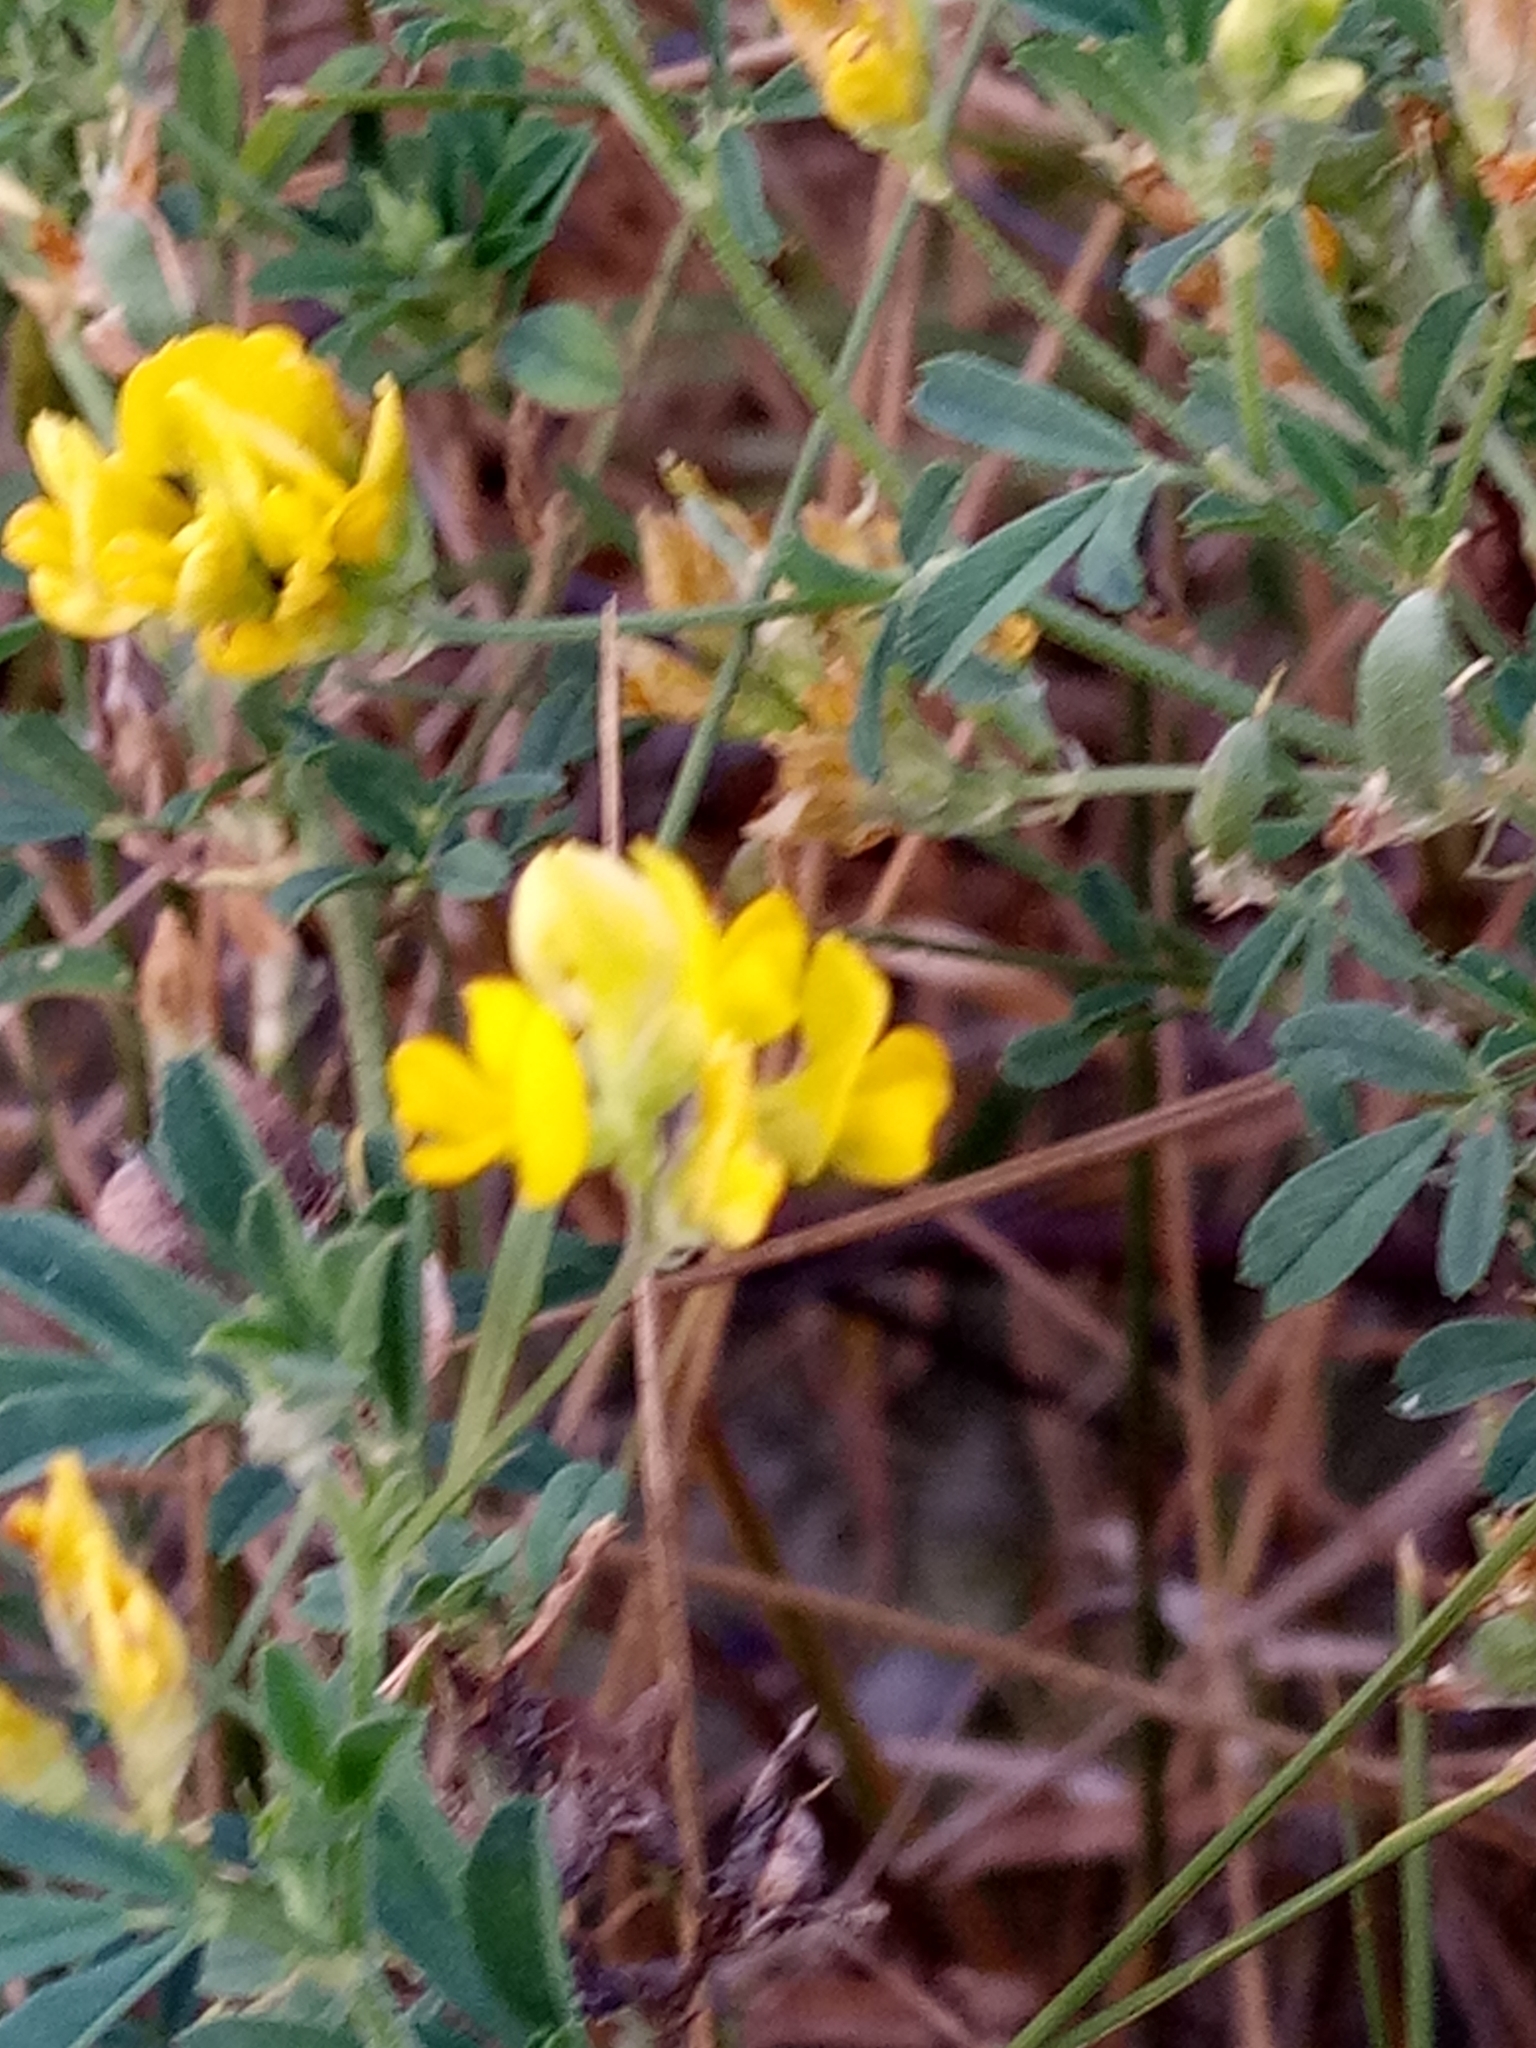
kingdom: Plantae
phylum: Tracheophyta
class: Magnoliopsida
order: Fabales
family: Fabaceae
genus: Medicago
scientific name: Medicago falcata
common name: Sickle medick
